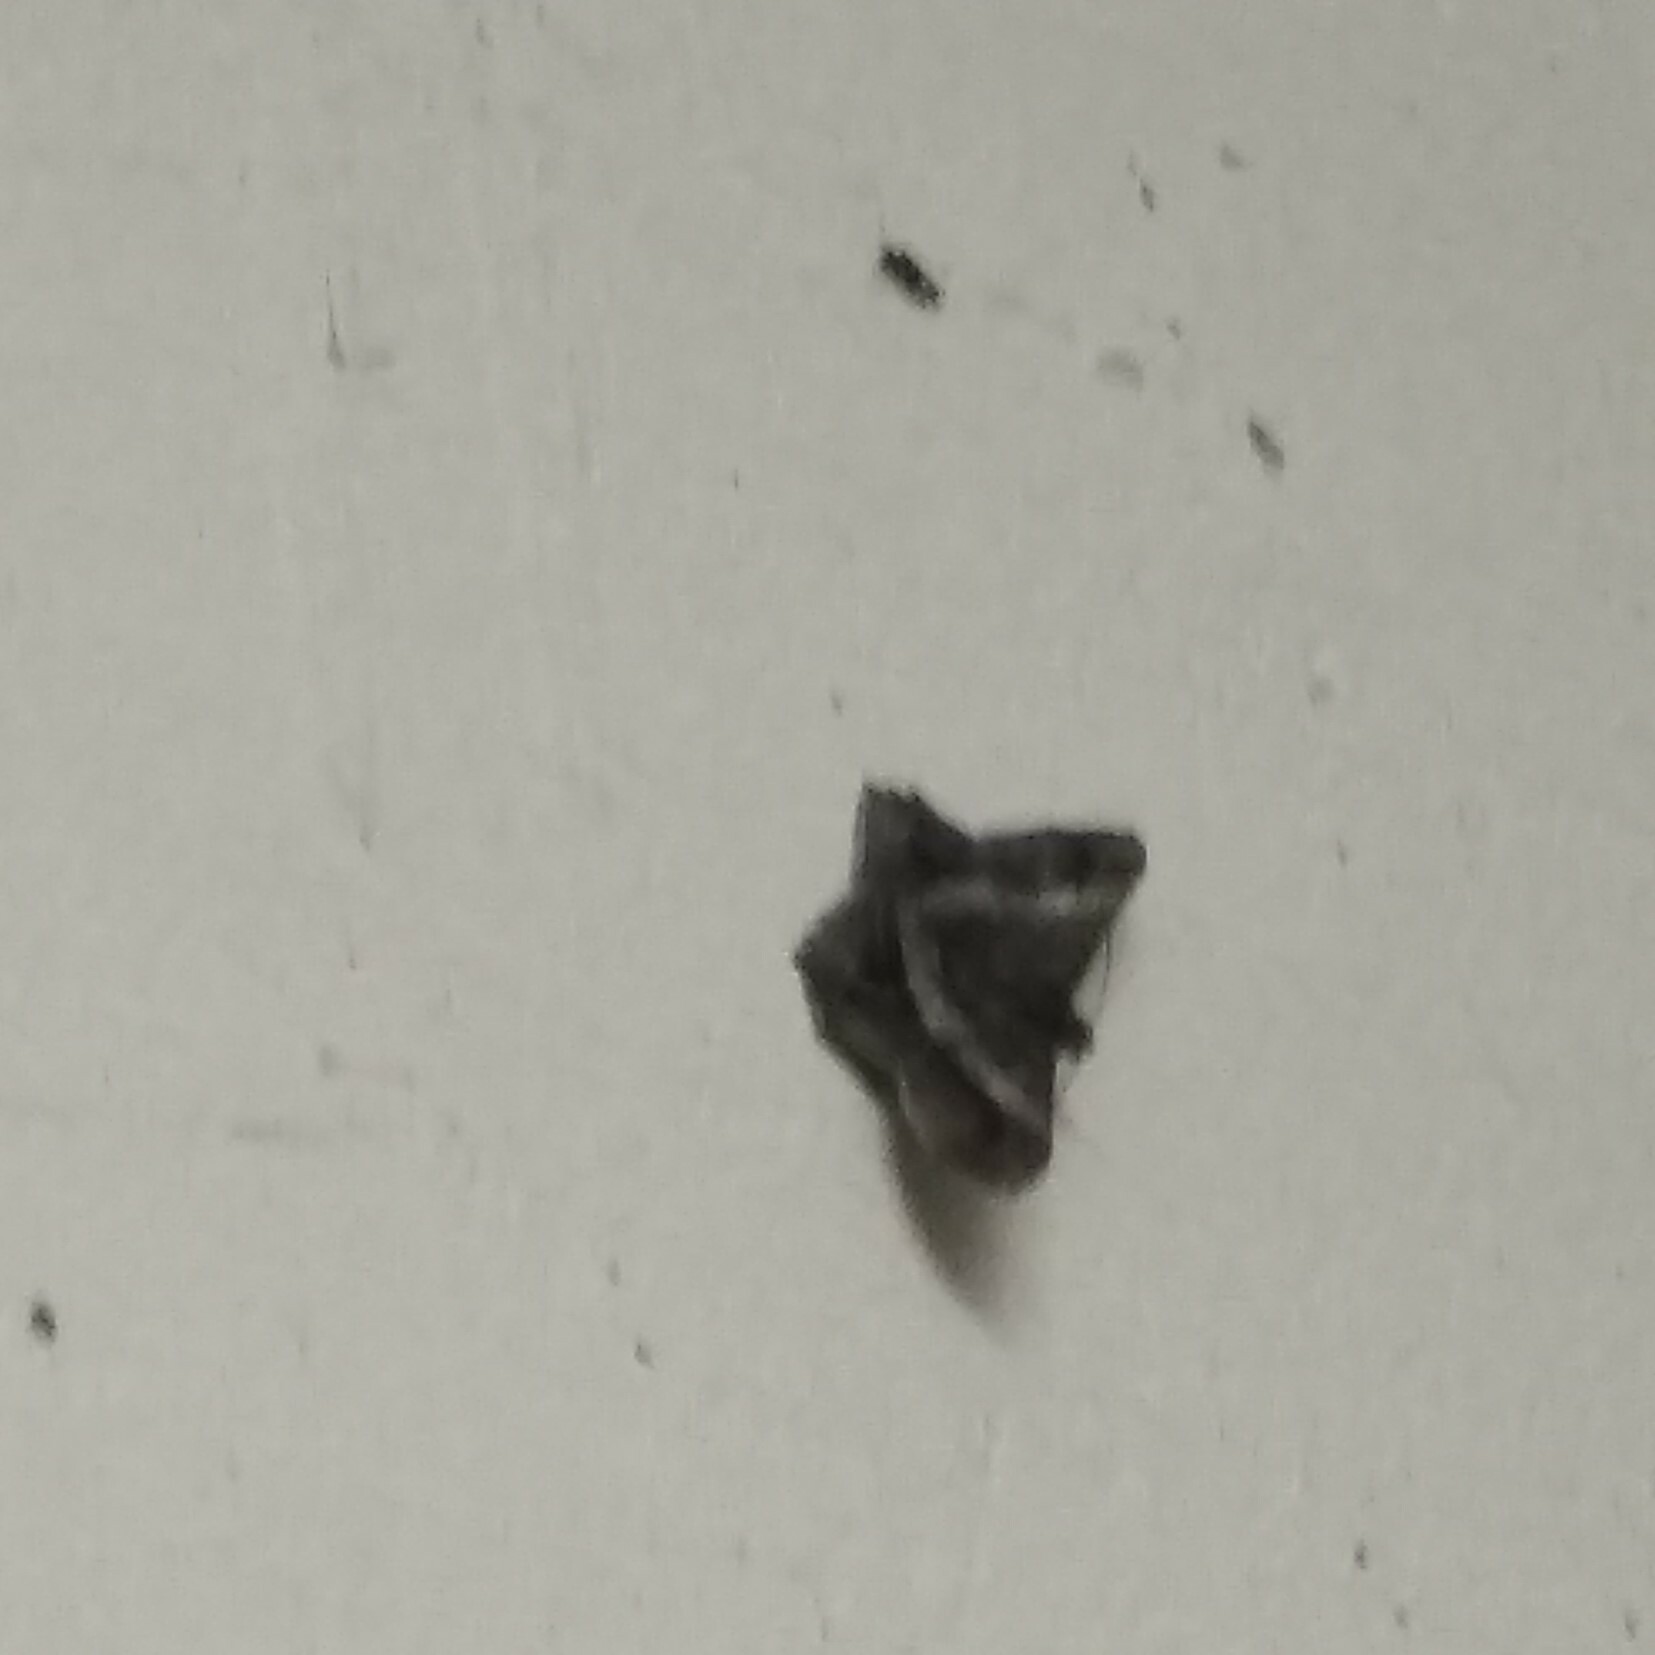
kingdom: Animalia
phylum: Arthropoda
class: Insecta
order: Lepidoptera
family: Geometridae
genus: Chiasmia
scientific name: Chiasmia nora
